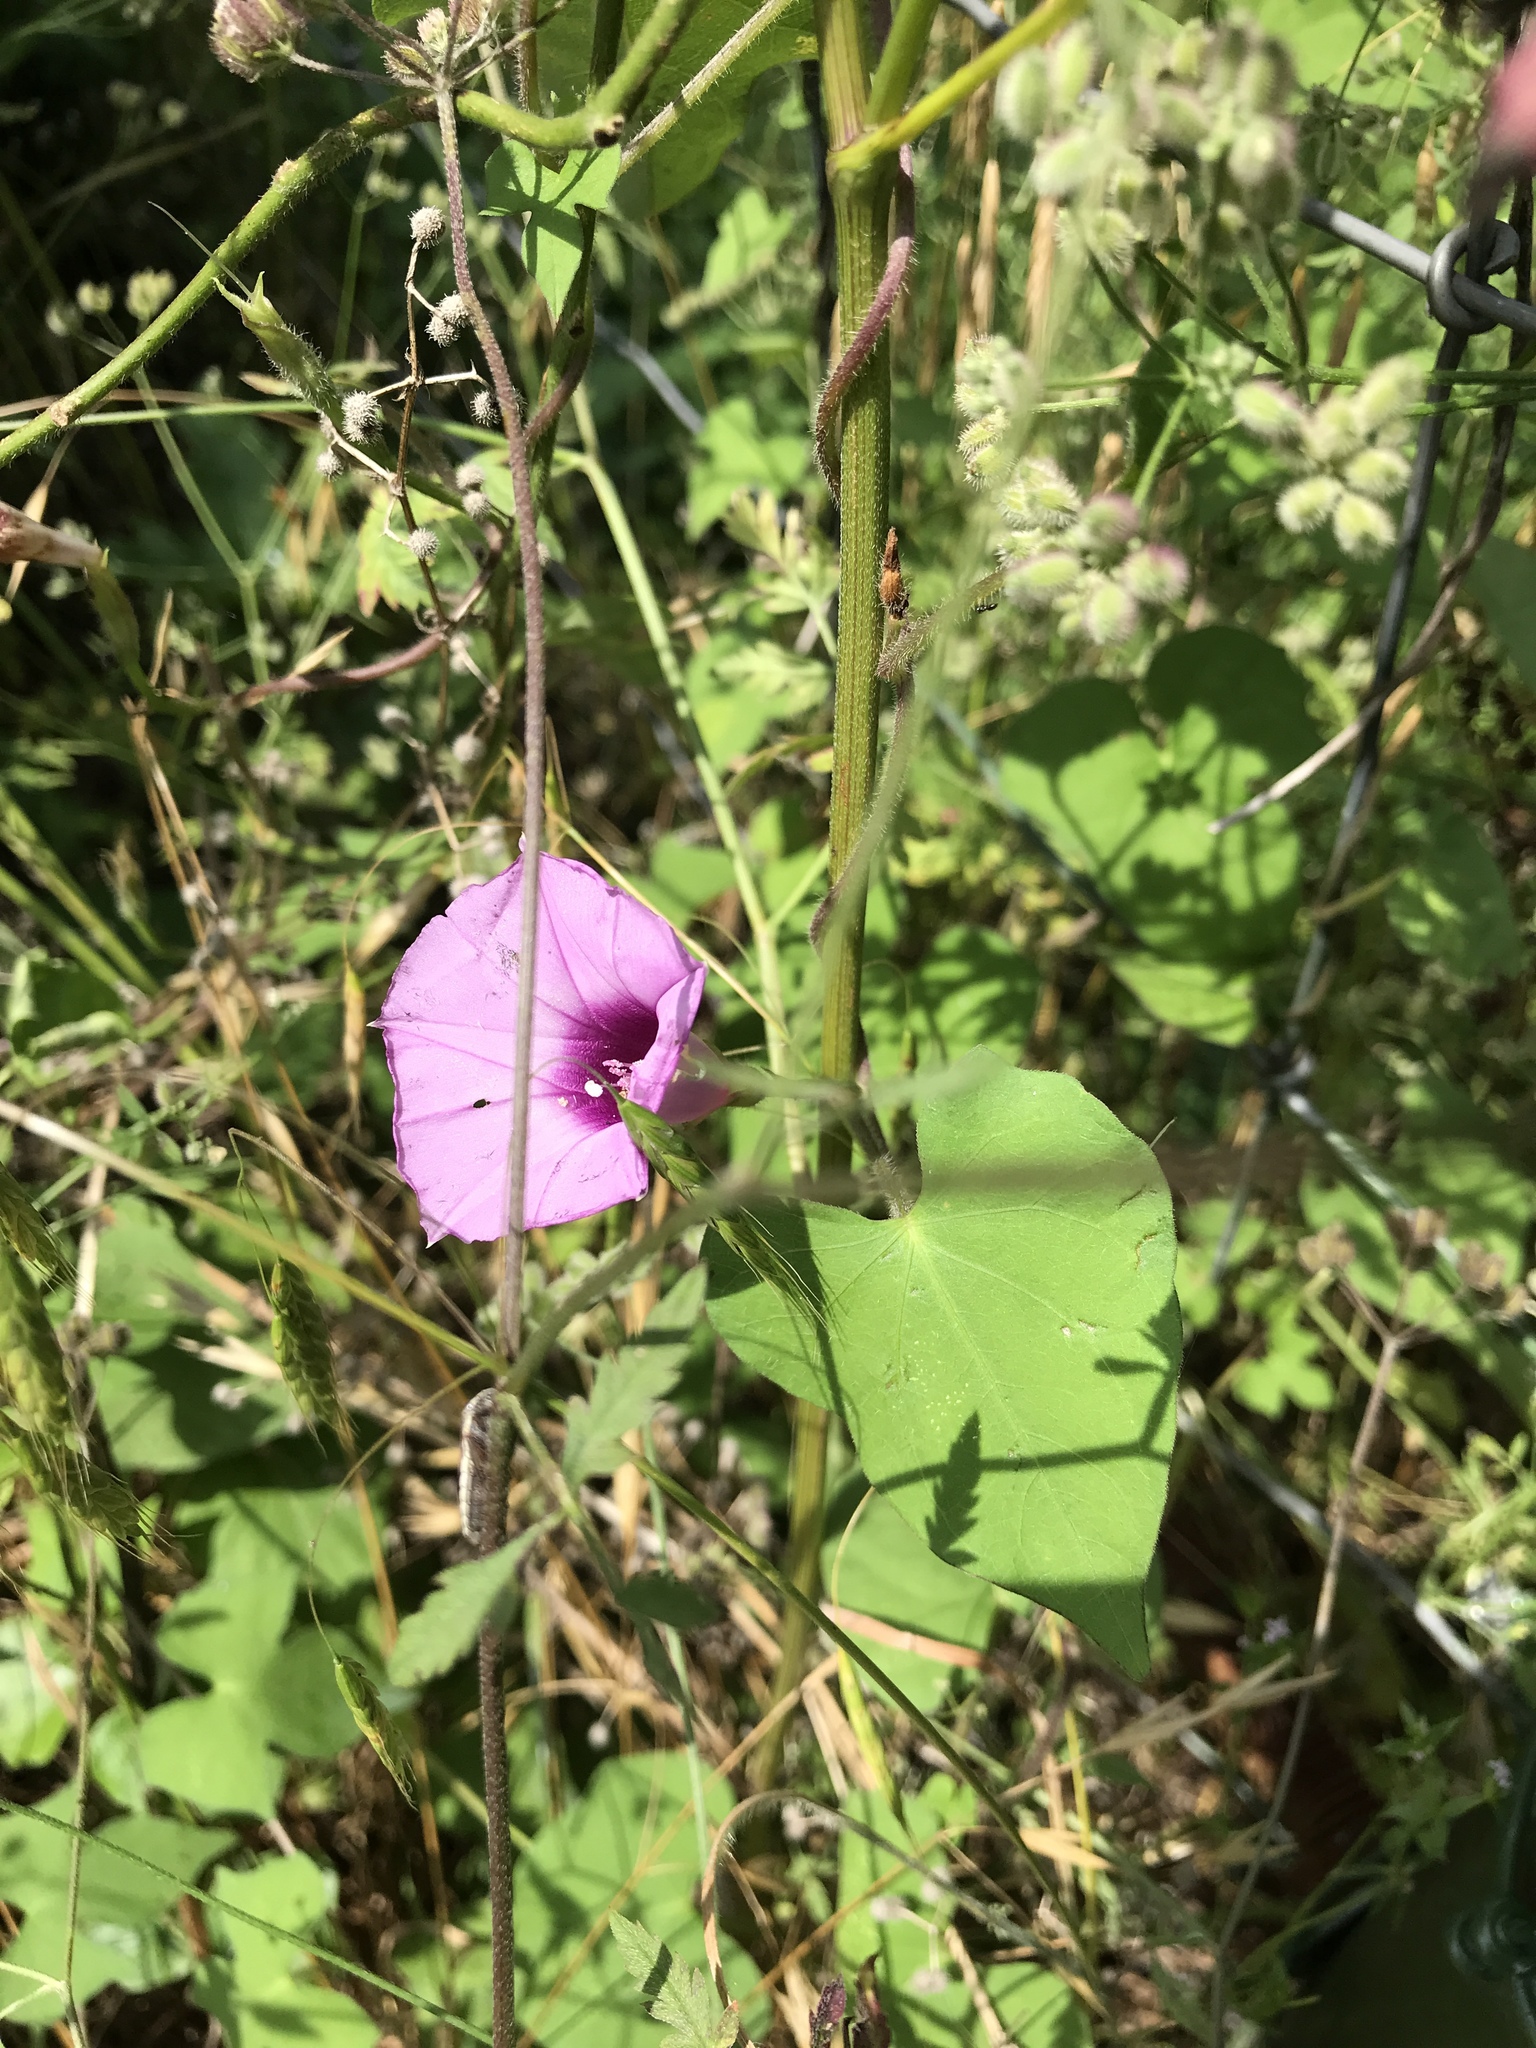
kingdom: Plantae
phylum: Tracheophyta
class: Magnoliopsida
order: Solanales
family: Convolvulaceae
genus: Ipomoea
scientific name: Ipomoea cordatotriloba
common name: Cotton morning glory
